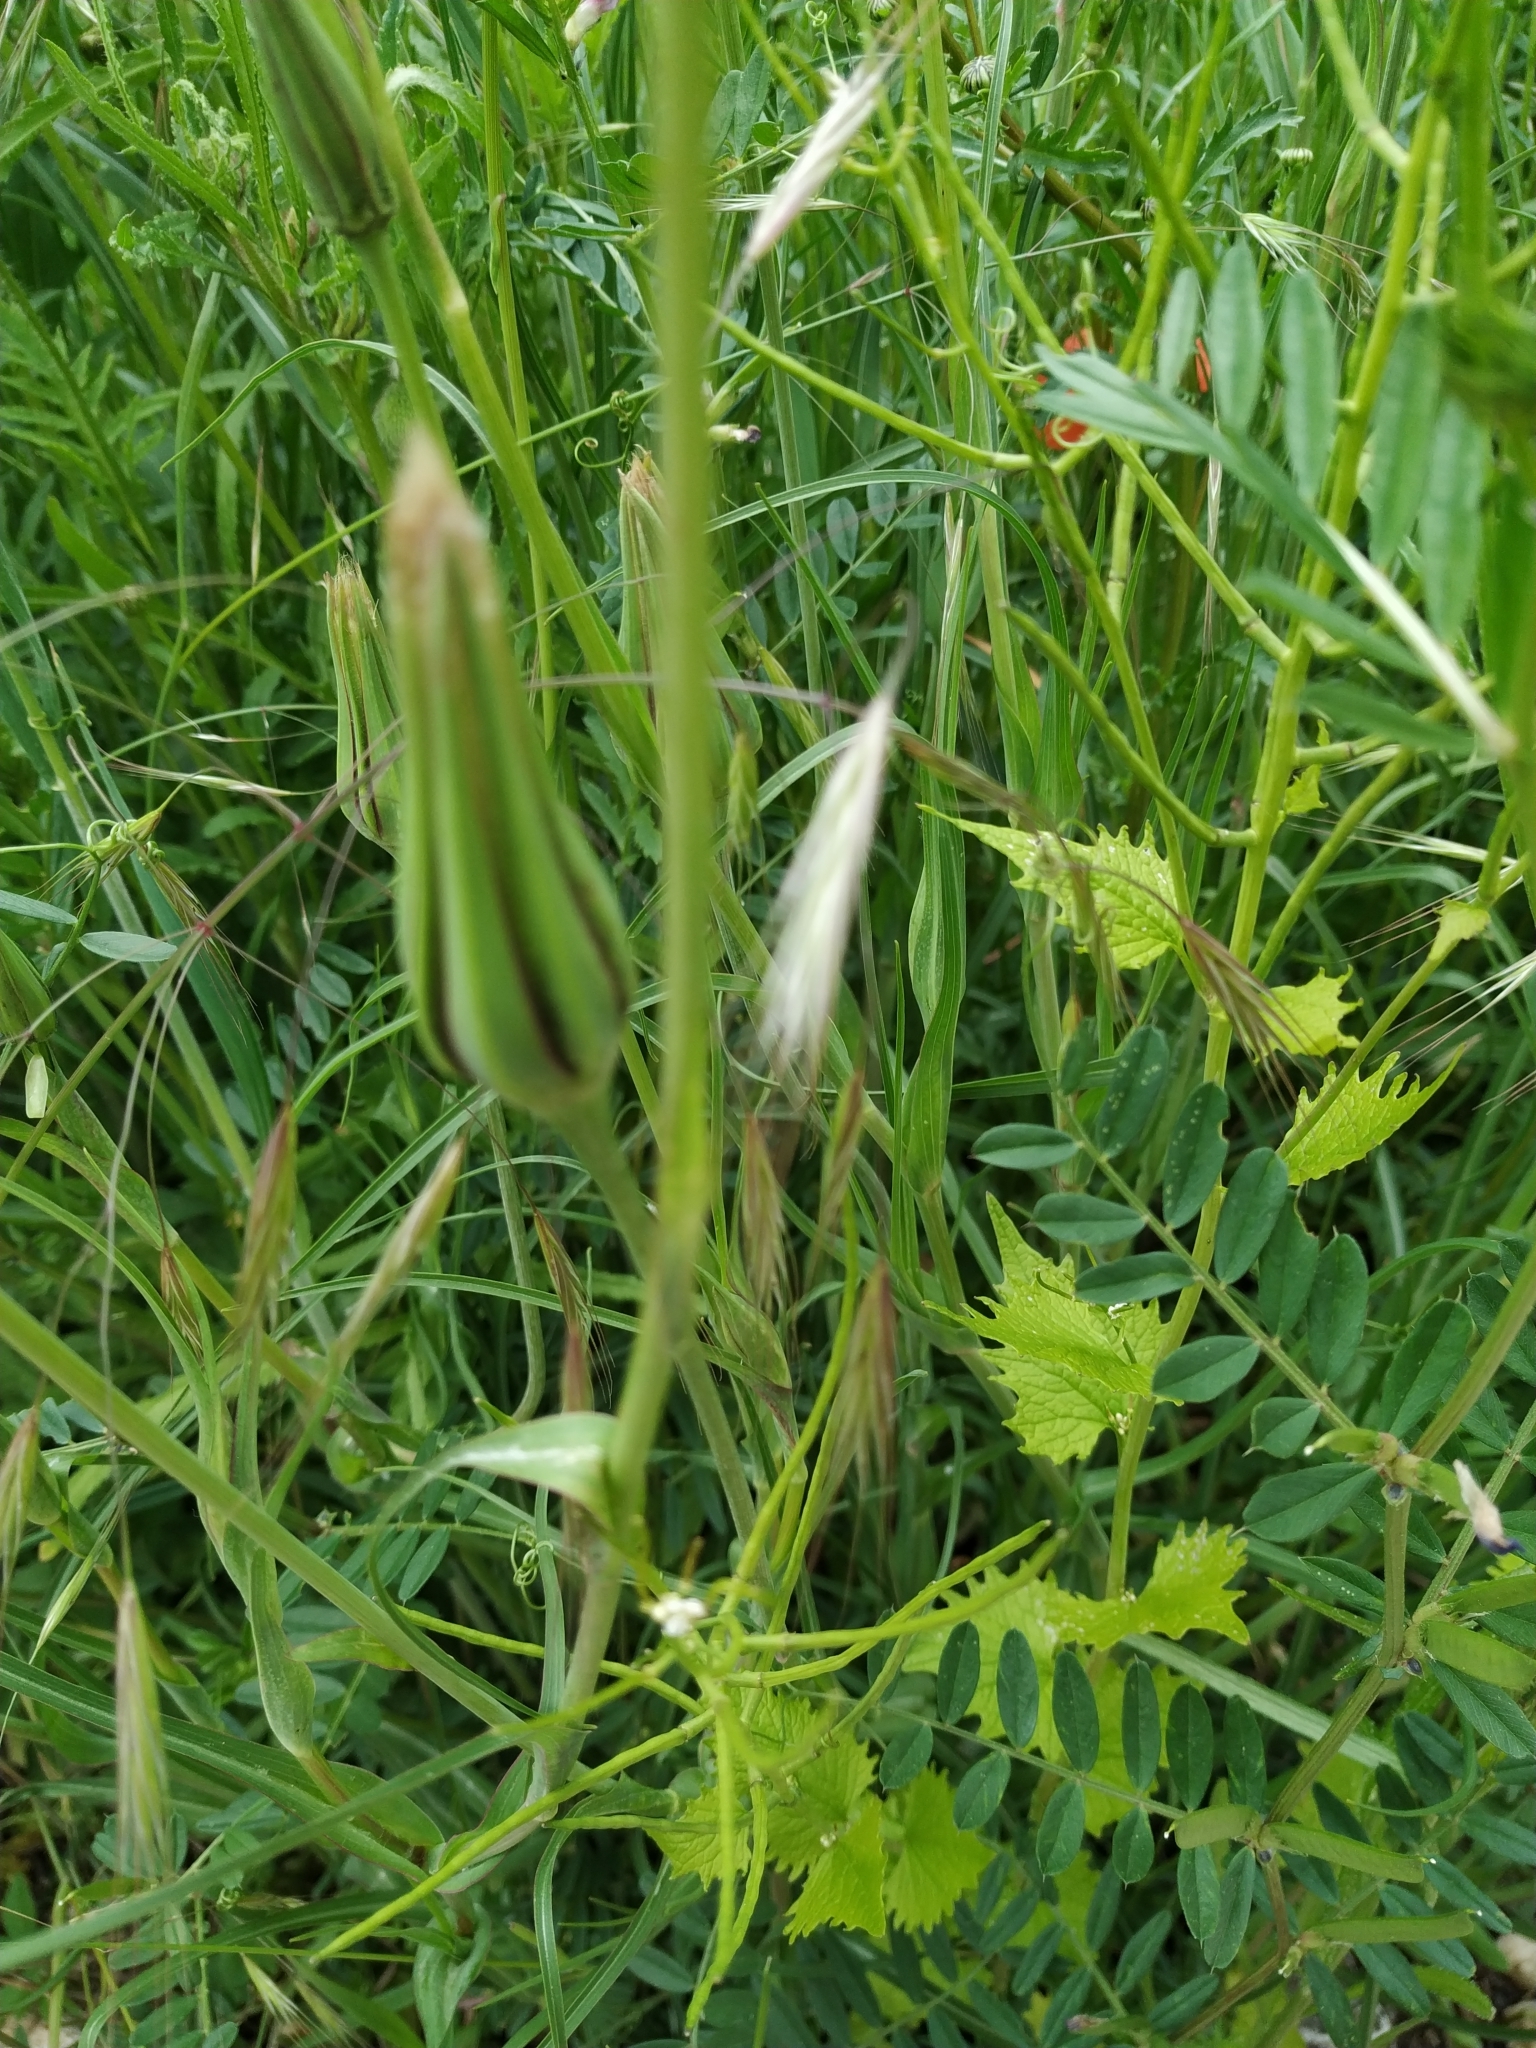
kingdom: Plantae
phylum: Tracheophyta
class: Magnoliopsida
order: Asterales
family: Asteraceae
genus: Tragopogon
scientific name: Tragopogon pratensis
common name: Goat's-beard
